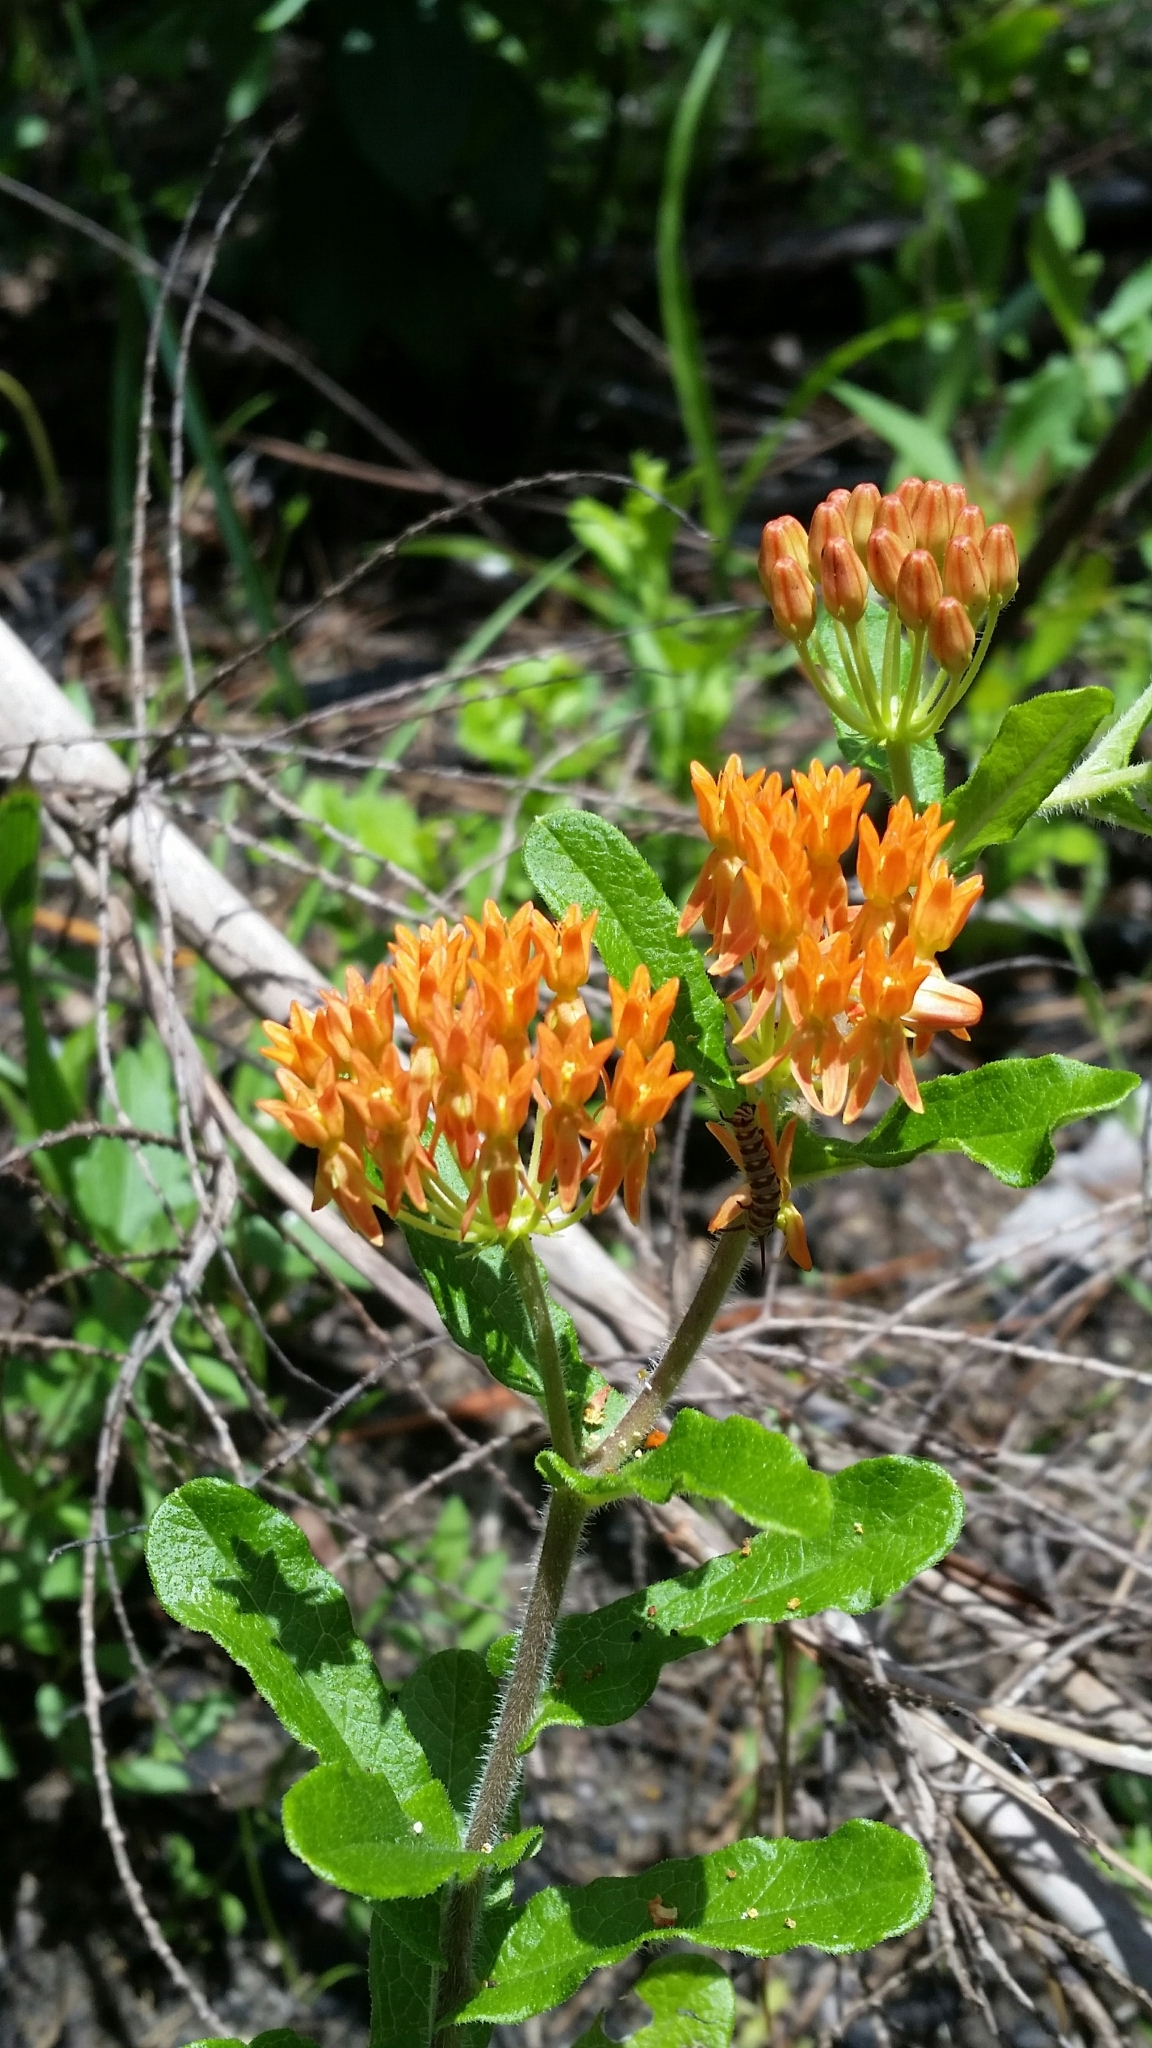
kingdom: Plantae
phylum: Tracheophyta
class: Magnoliopsida
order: Gentianales
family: Apocynaceae
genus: Asclepias
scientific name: Asclepias tuberosa
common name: Butterfly milkweed
